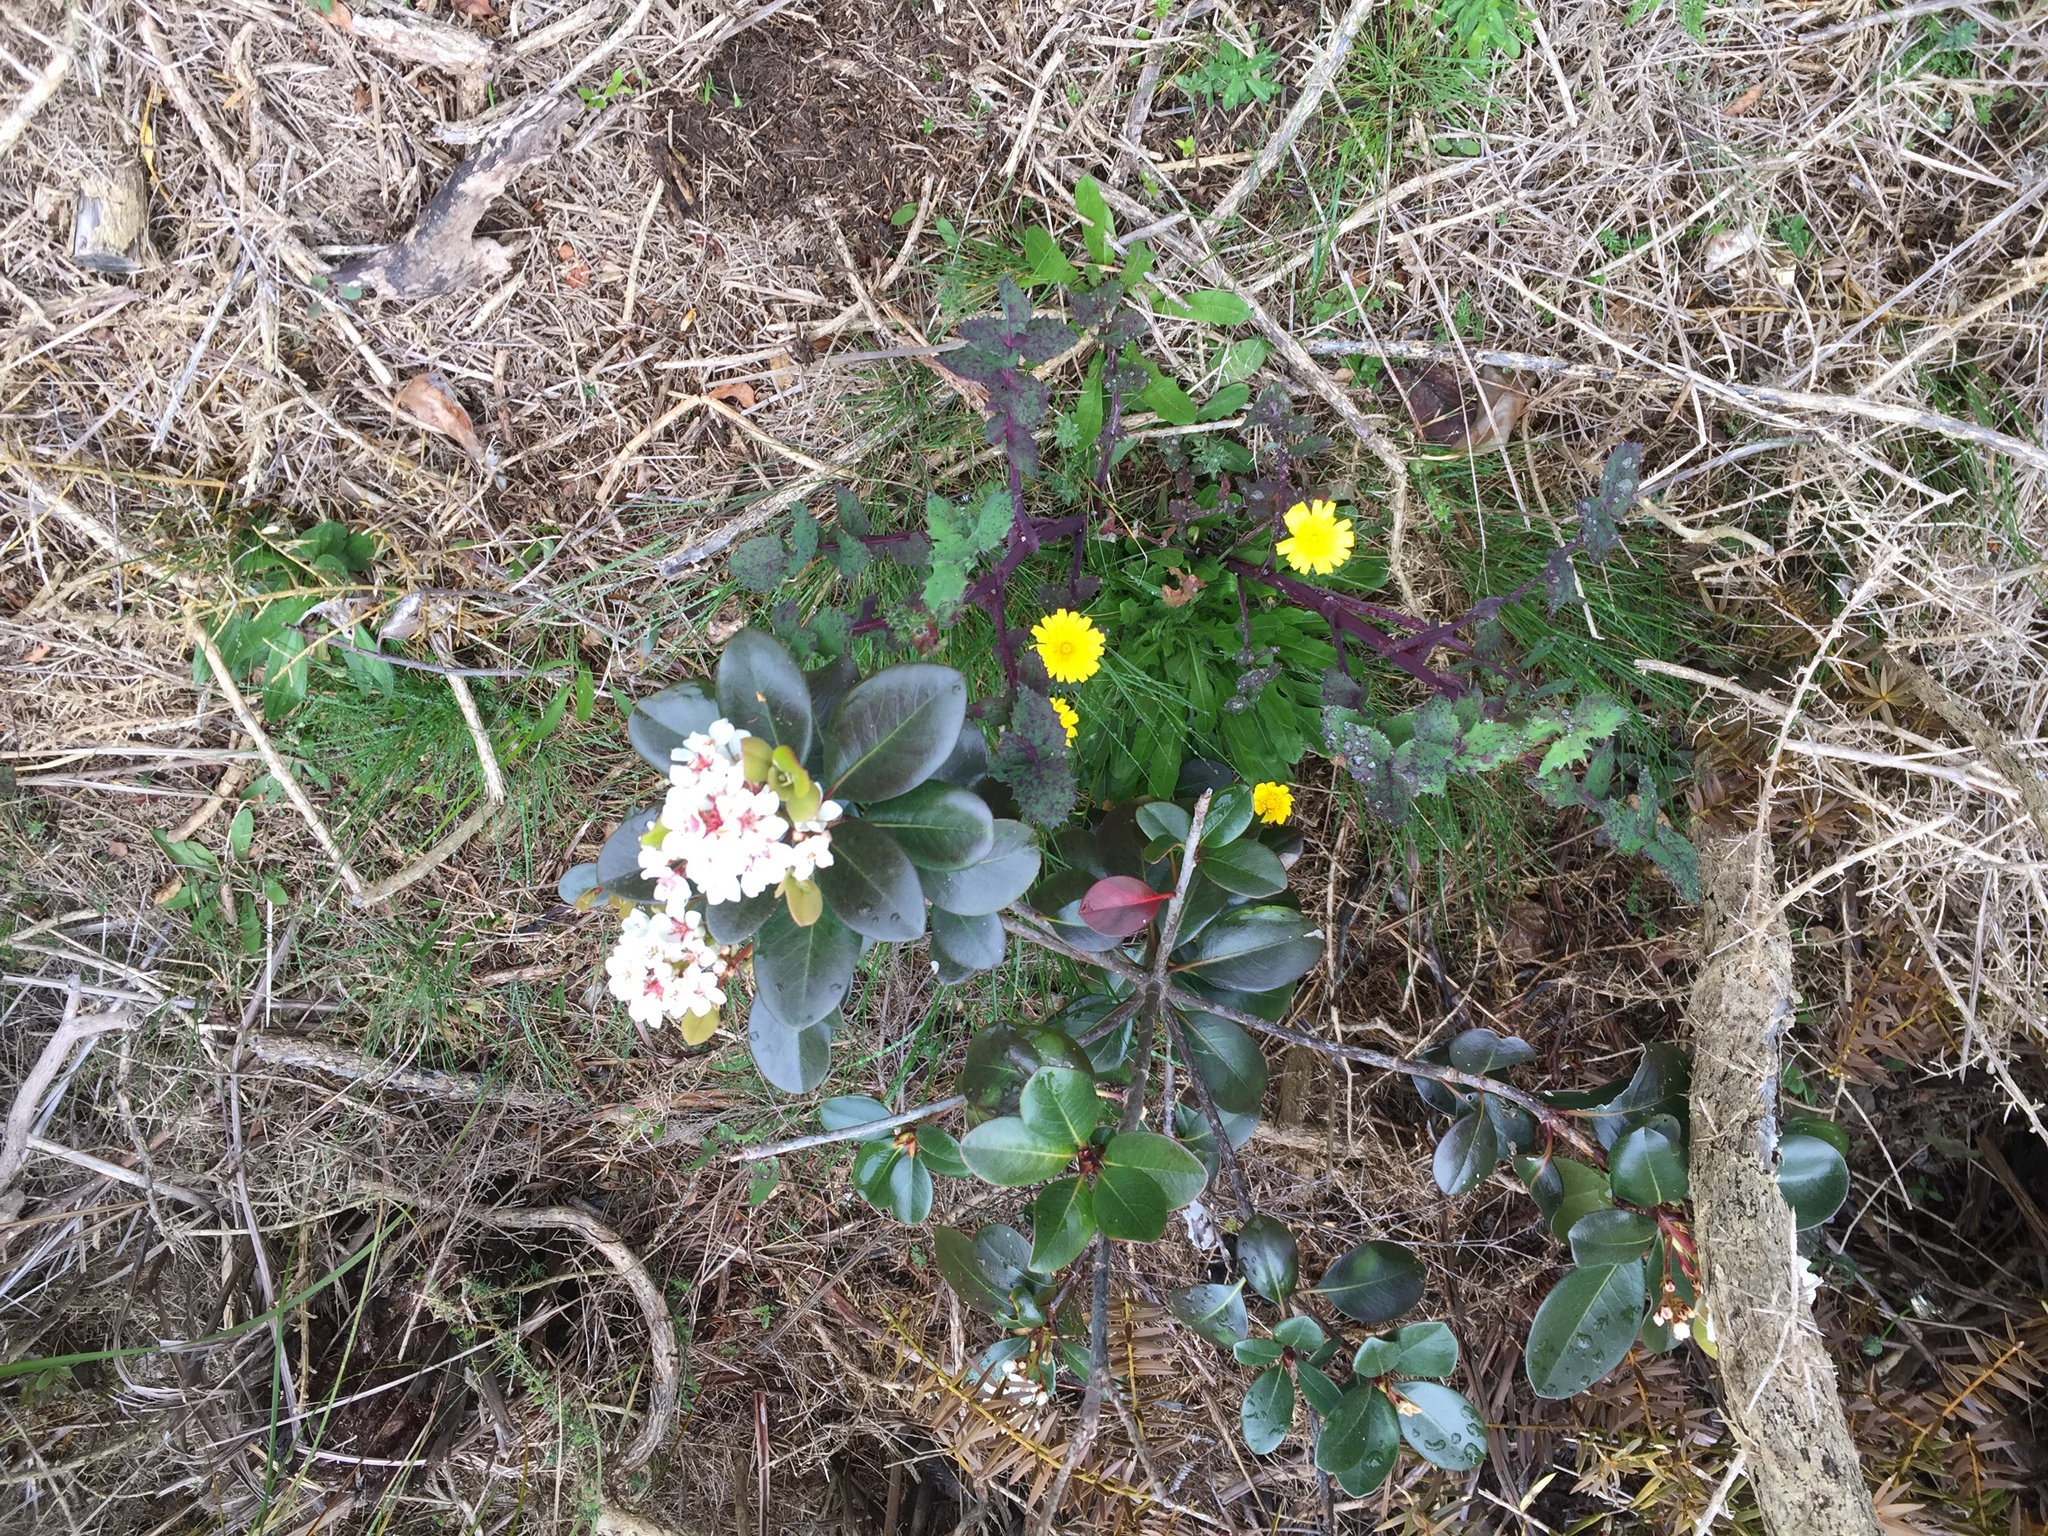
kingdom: Plantae
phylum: Tracheophyta
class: Magnoliopsida
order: Rosales
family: Rosaceae
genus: Rhaphiolepis
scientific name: Rhaphiolepis indica
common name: India-hawthorn
